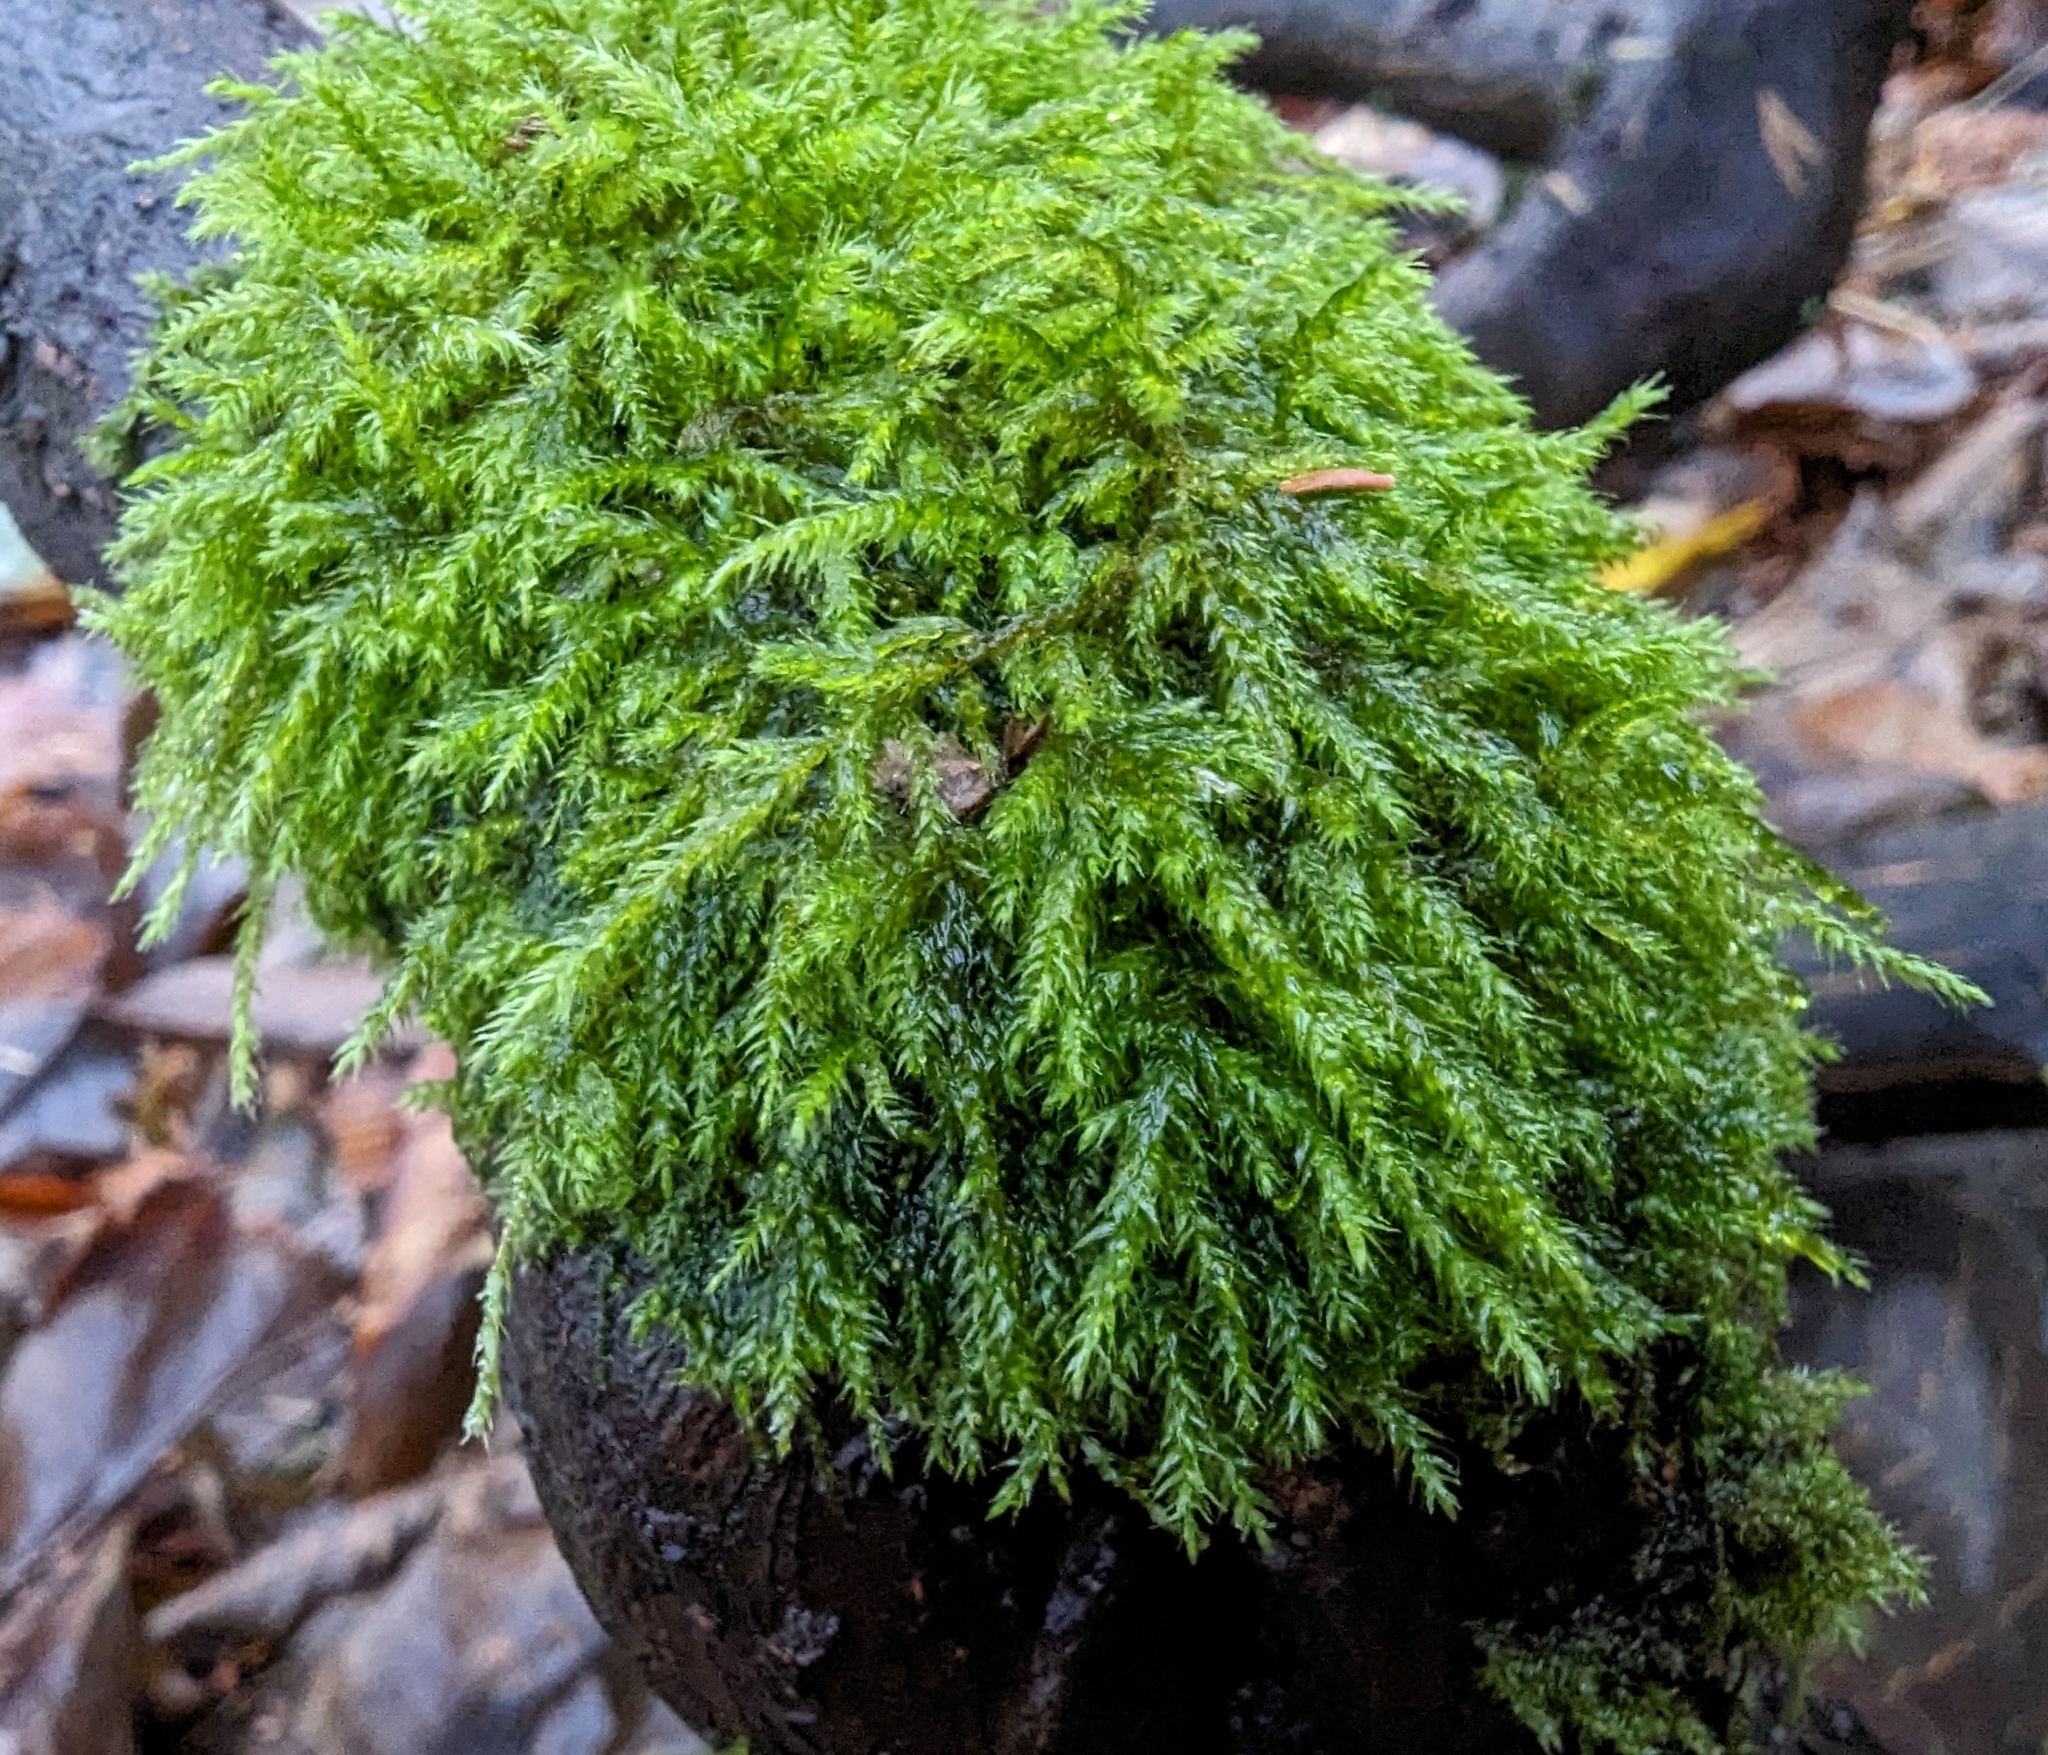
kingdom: Plantae
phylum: Bryophyta
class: Bryopsida
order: Hypnales
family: Lembophyllaceae
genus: Pseudisothecium
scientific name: Pseudisothecium stoloniferum
